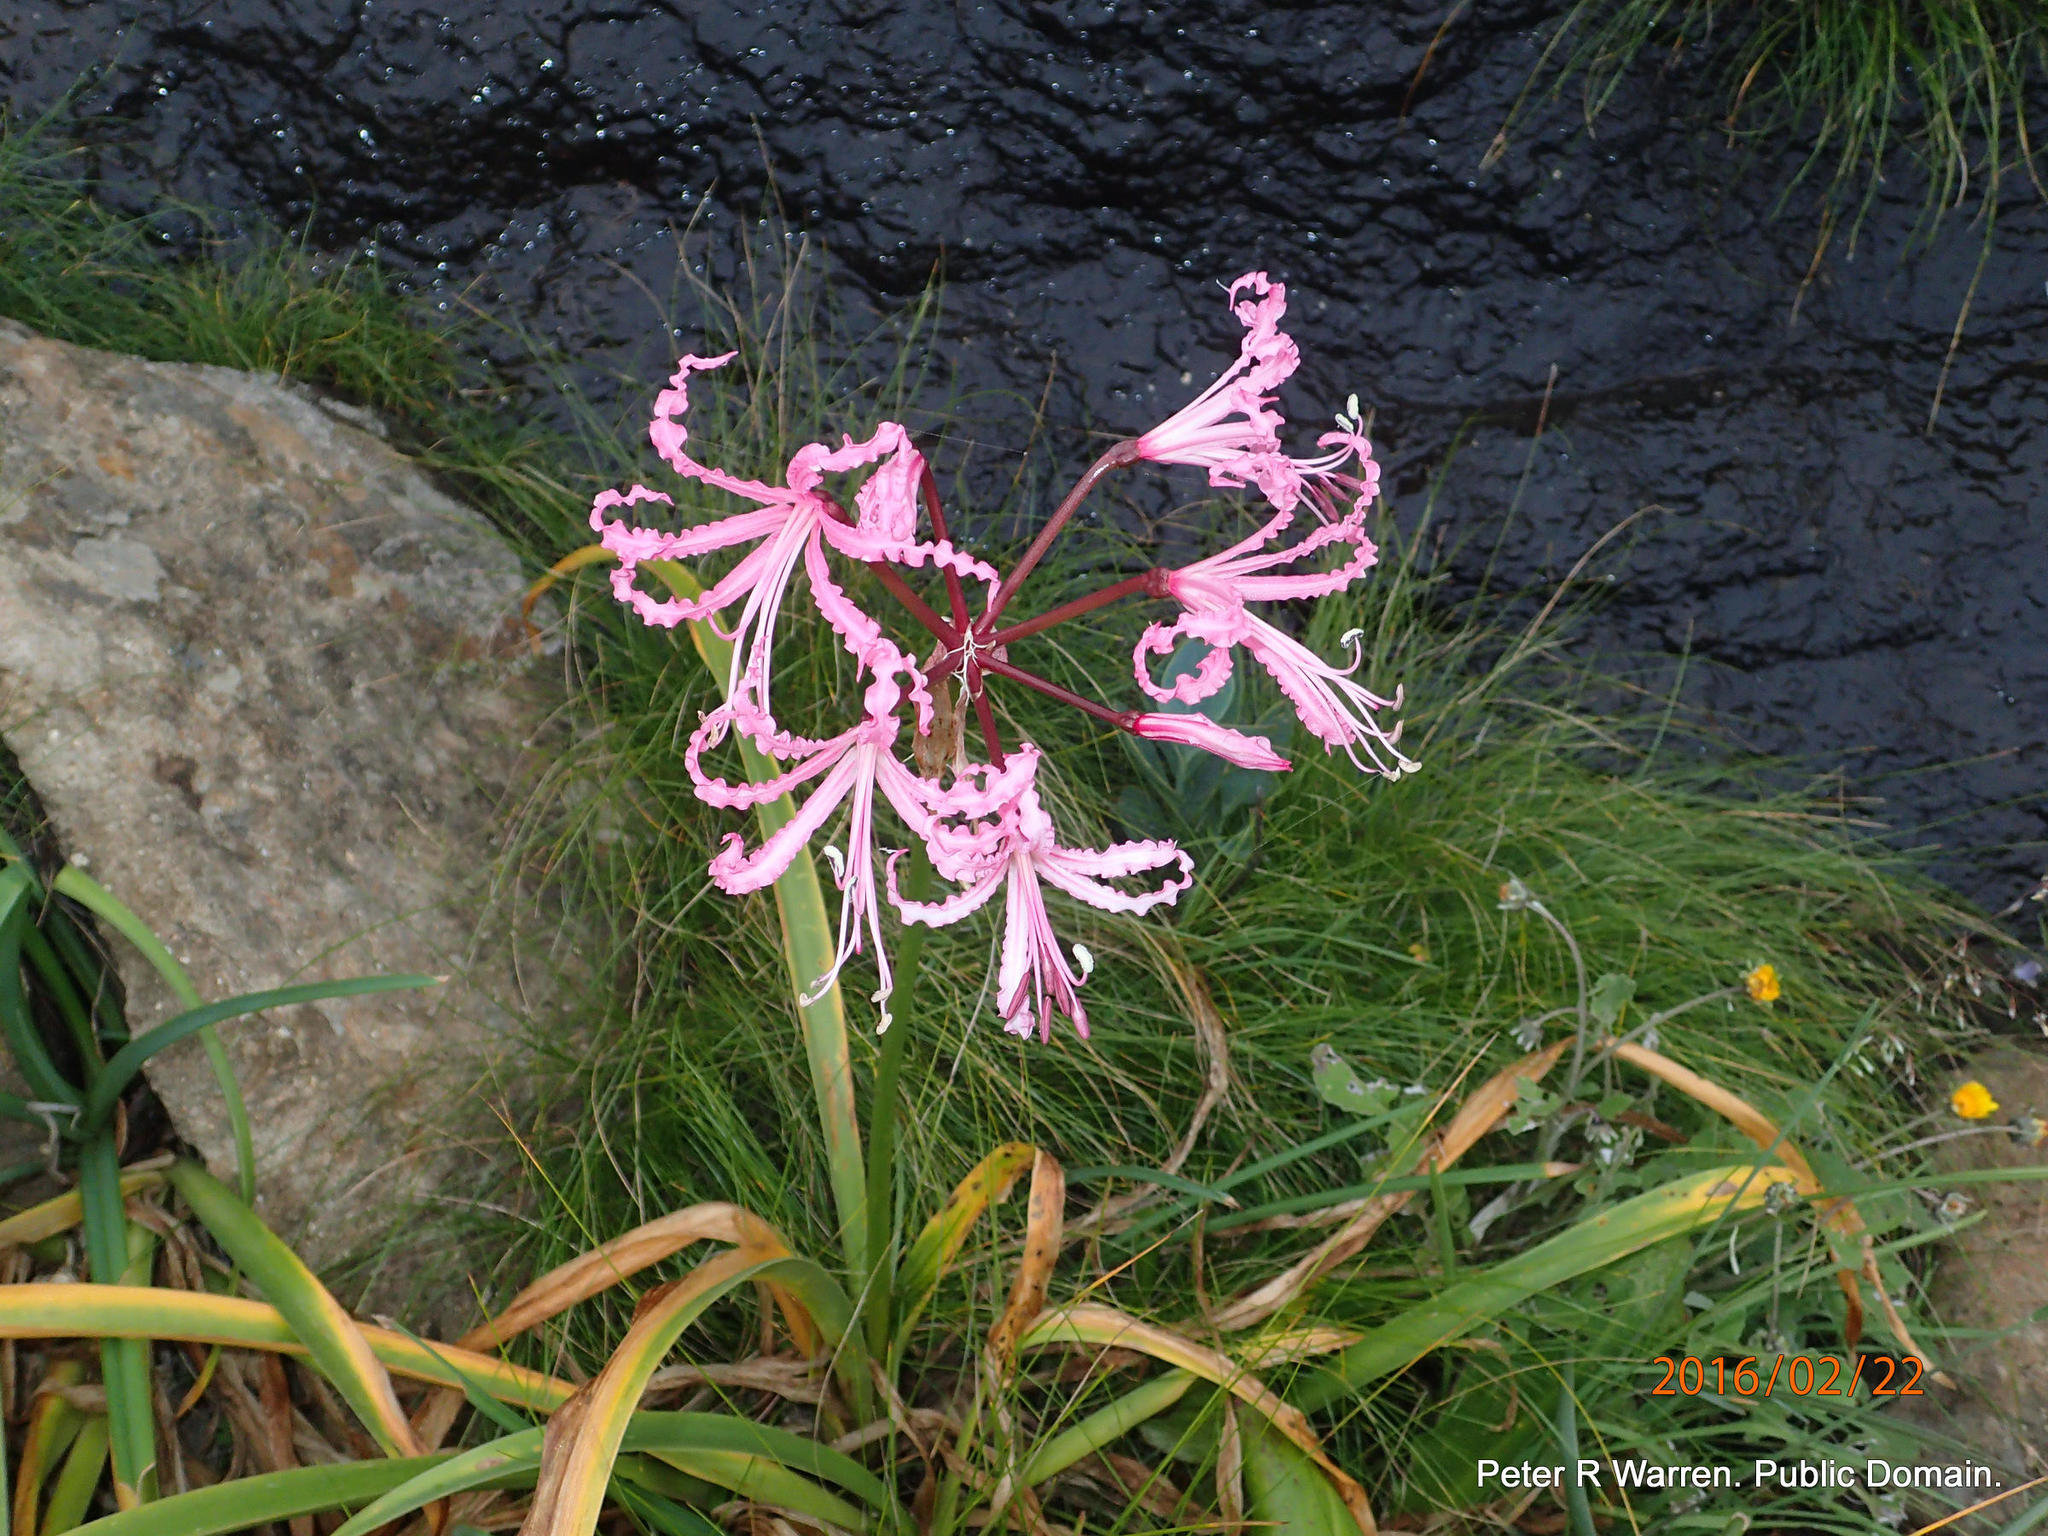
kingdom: Plantae
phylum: Tracheophyta
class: Liliopsida
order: Asparagales
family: Amaryllidaceae
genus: Nerine
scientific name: Nerine bowdenii
